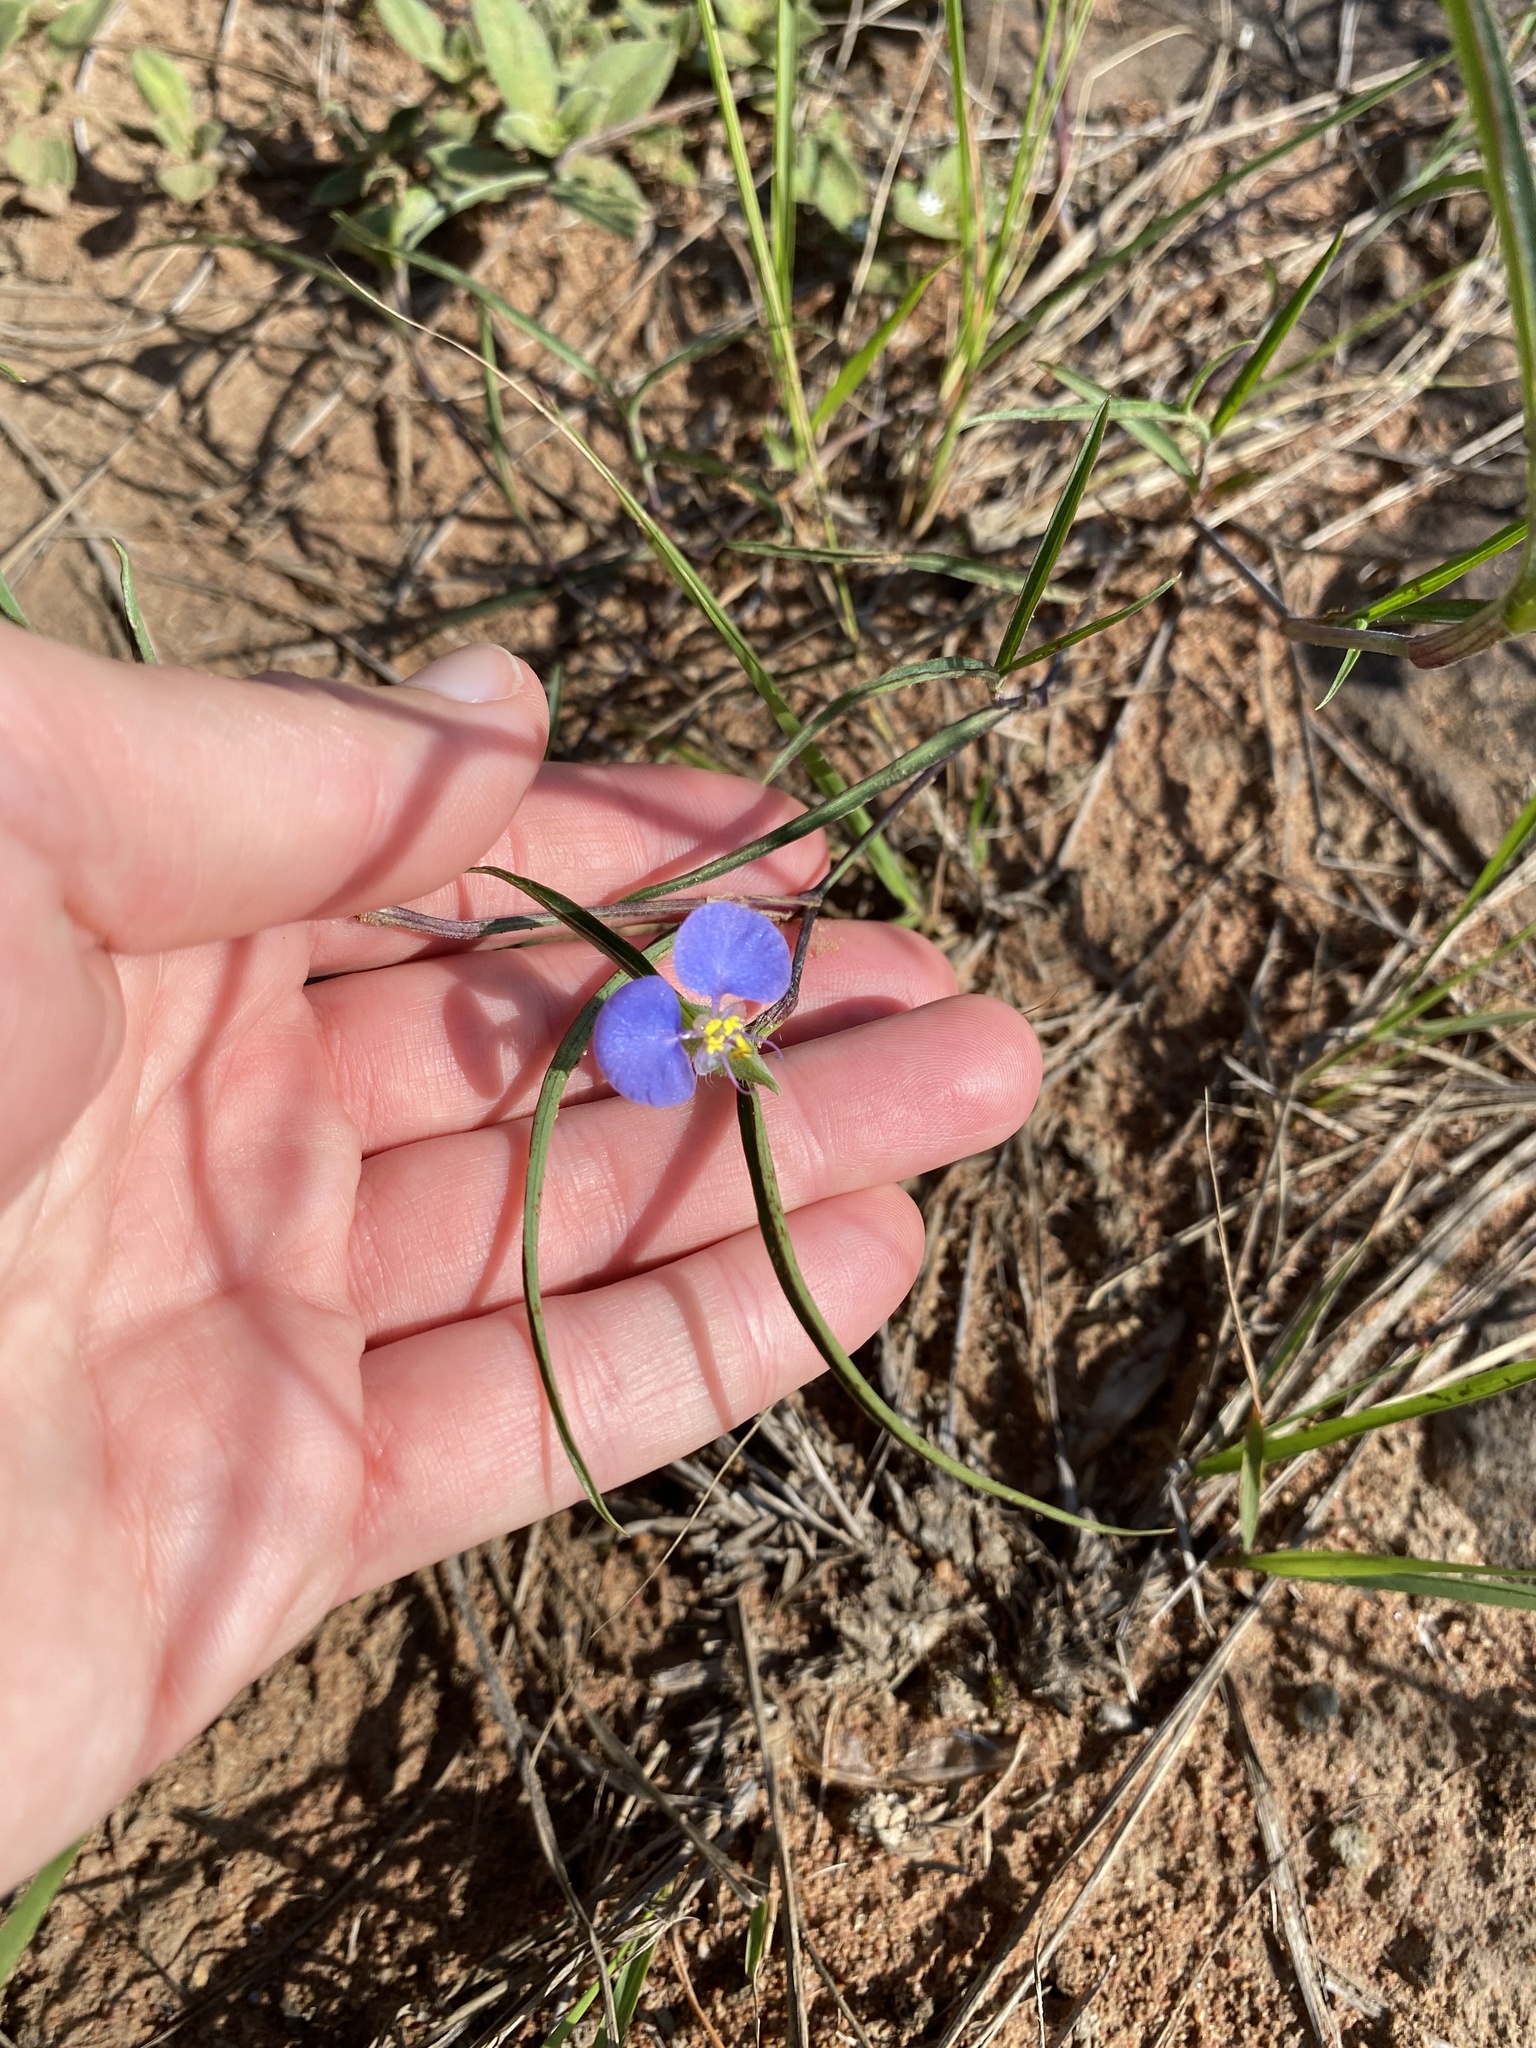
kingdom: Plantae
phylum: Tracheophyta
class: Liliopsida
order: Commelinales
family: Commelinaceae
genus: Commelina
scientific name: Commelina erecta
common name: Blousel blommetjie
